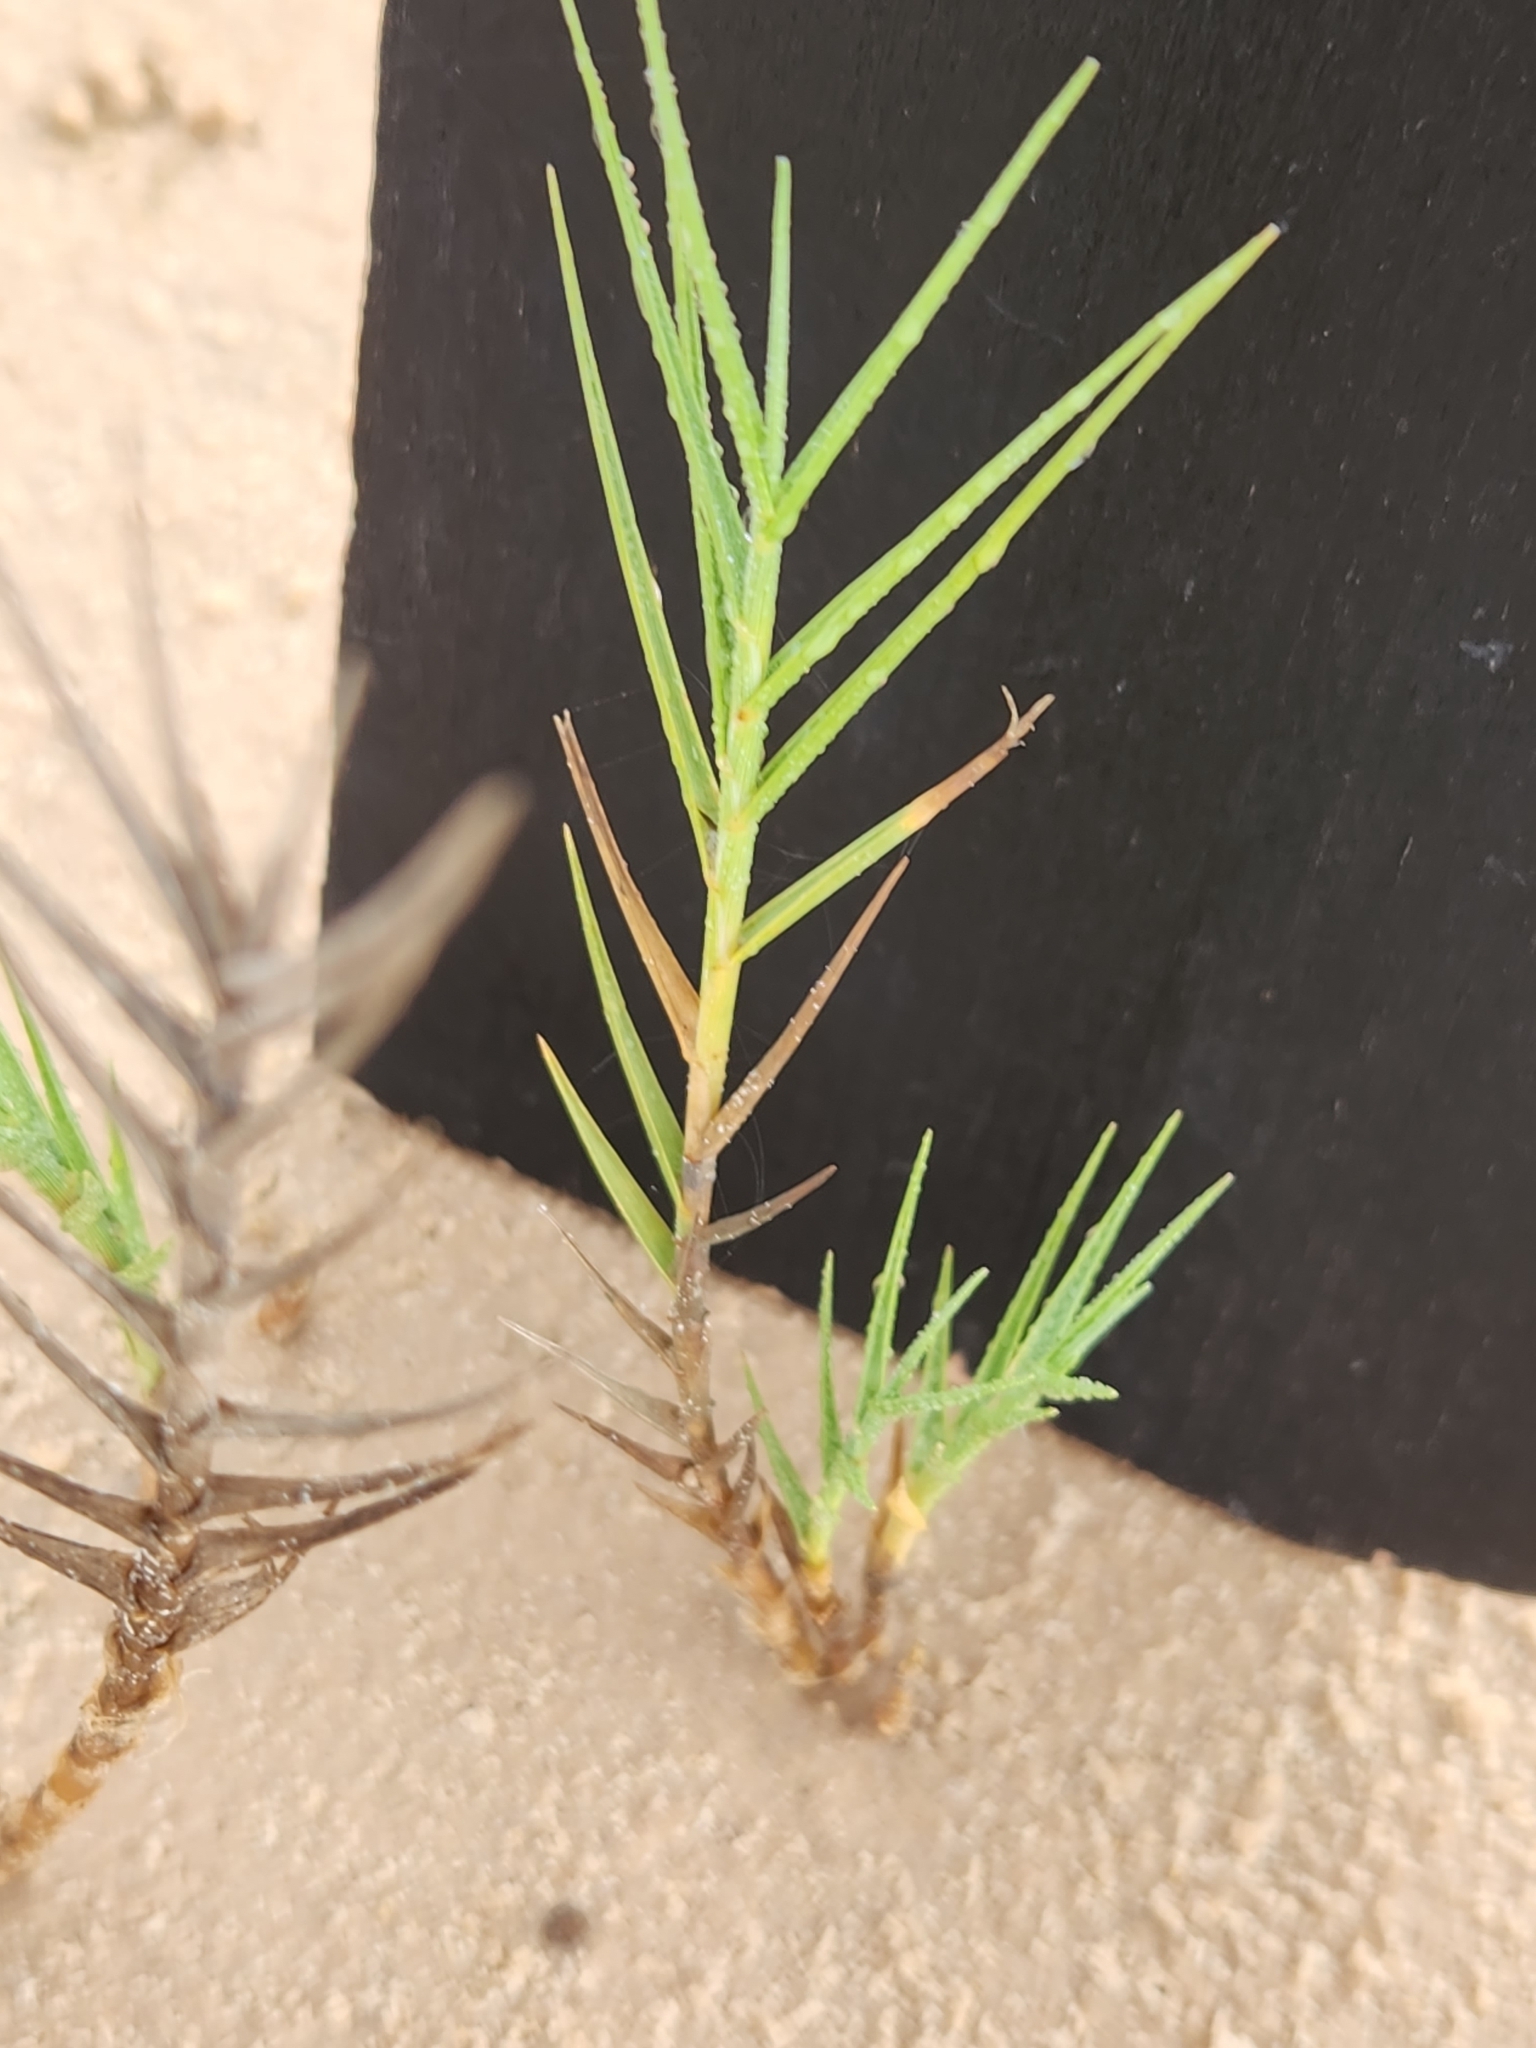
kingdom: Plantae
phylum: Tracheophyta
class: Liliopsida
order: Poales
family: Poaceae
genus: Distichlis
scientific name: Distichlis spicata
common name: Saltgrass
